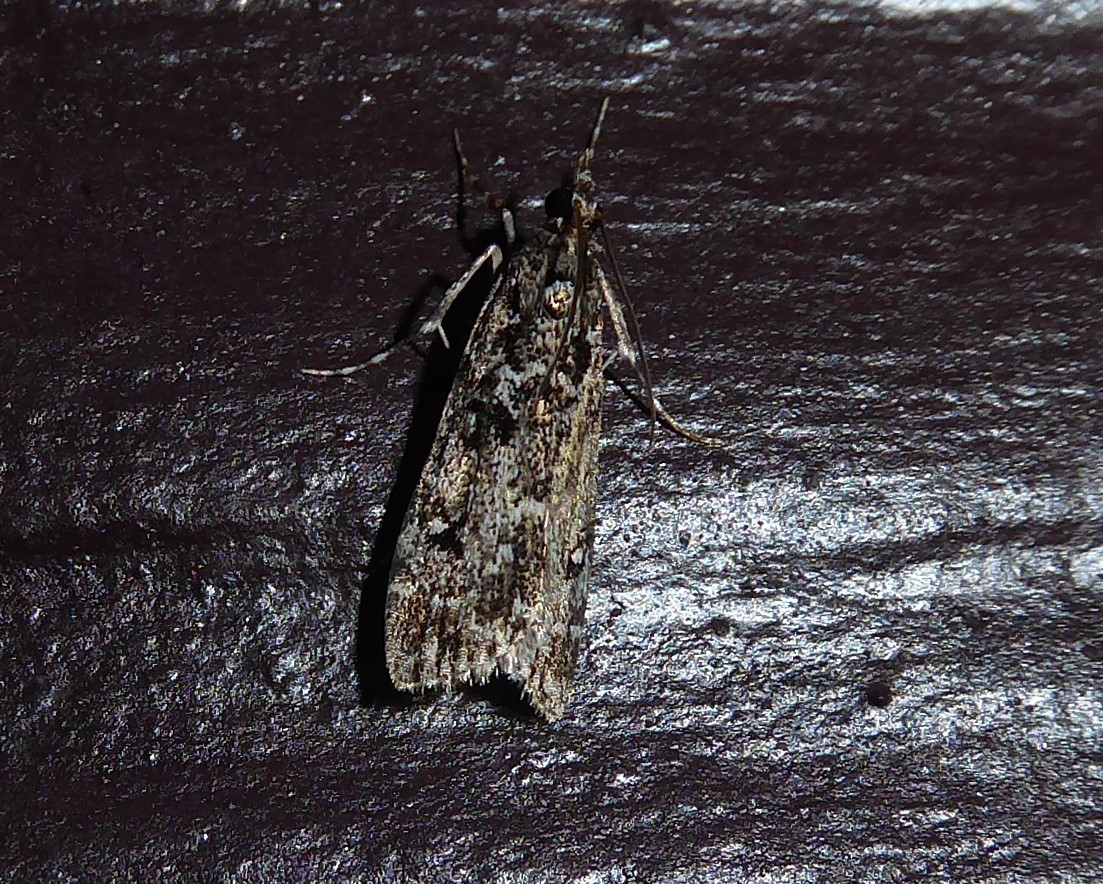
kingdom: Animalia
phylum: Arthropoda
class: Insecta
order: Lepidoptera
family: Crambidae
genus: Eudonia
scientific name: Eudonia philerga
